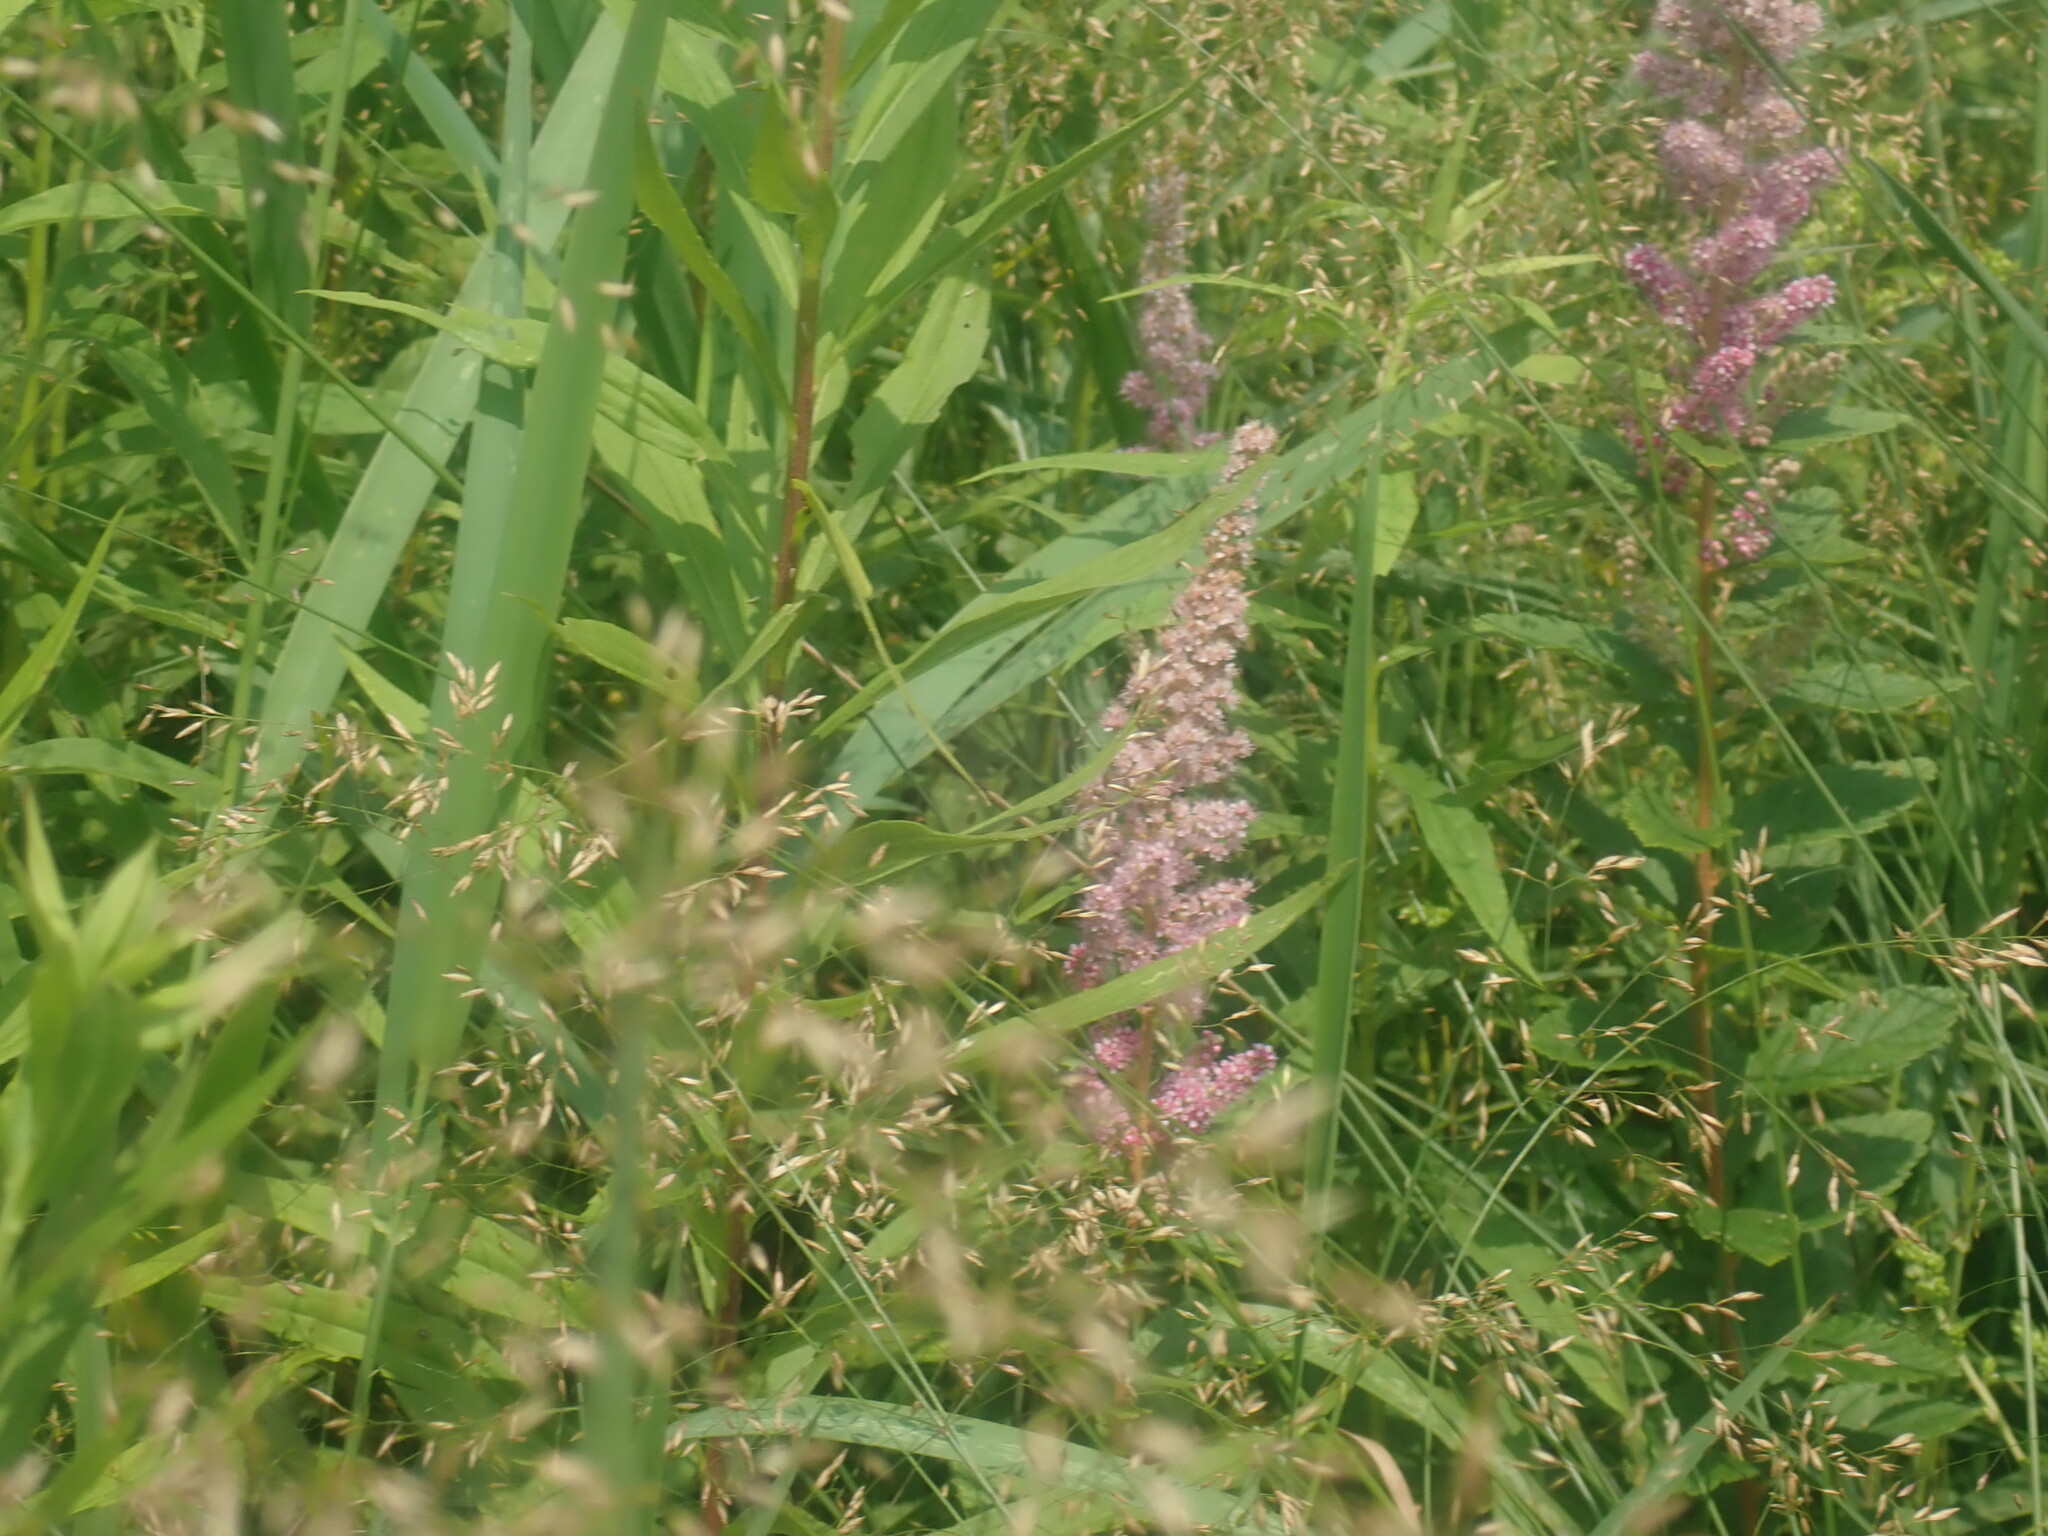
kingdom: Plantae
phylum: Tracheophyta
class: Magnoliopsida
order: Rosales
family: Rosaceae
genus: Spiraea
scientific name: Spiraea tomentosa
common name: Hardhack
